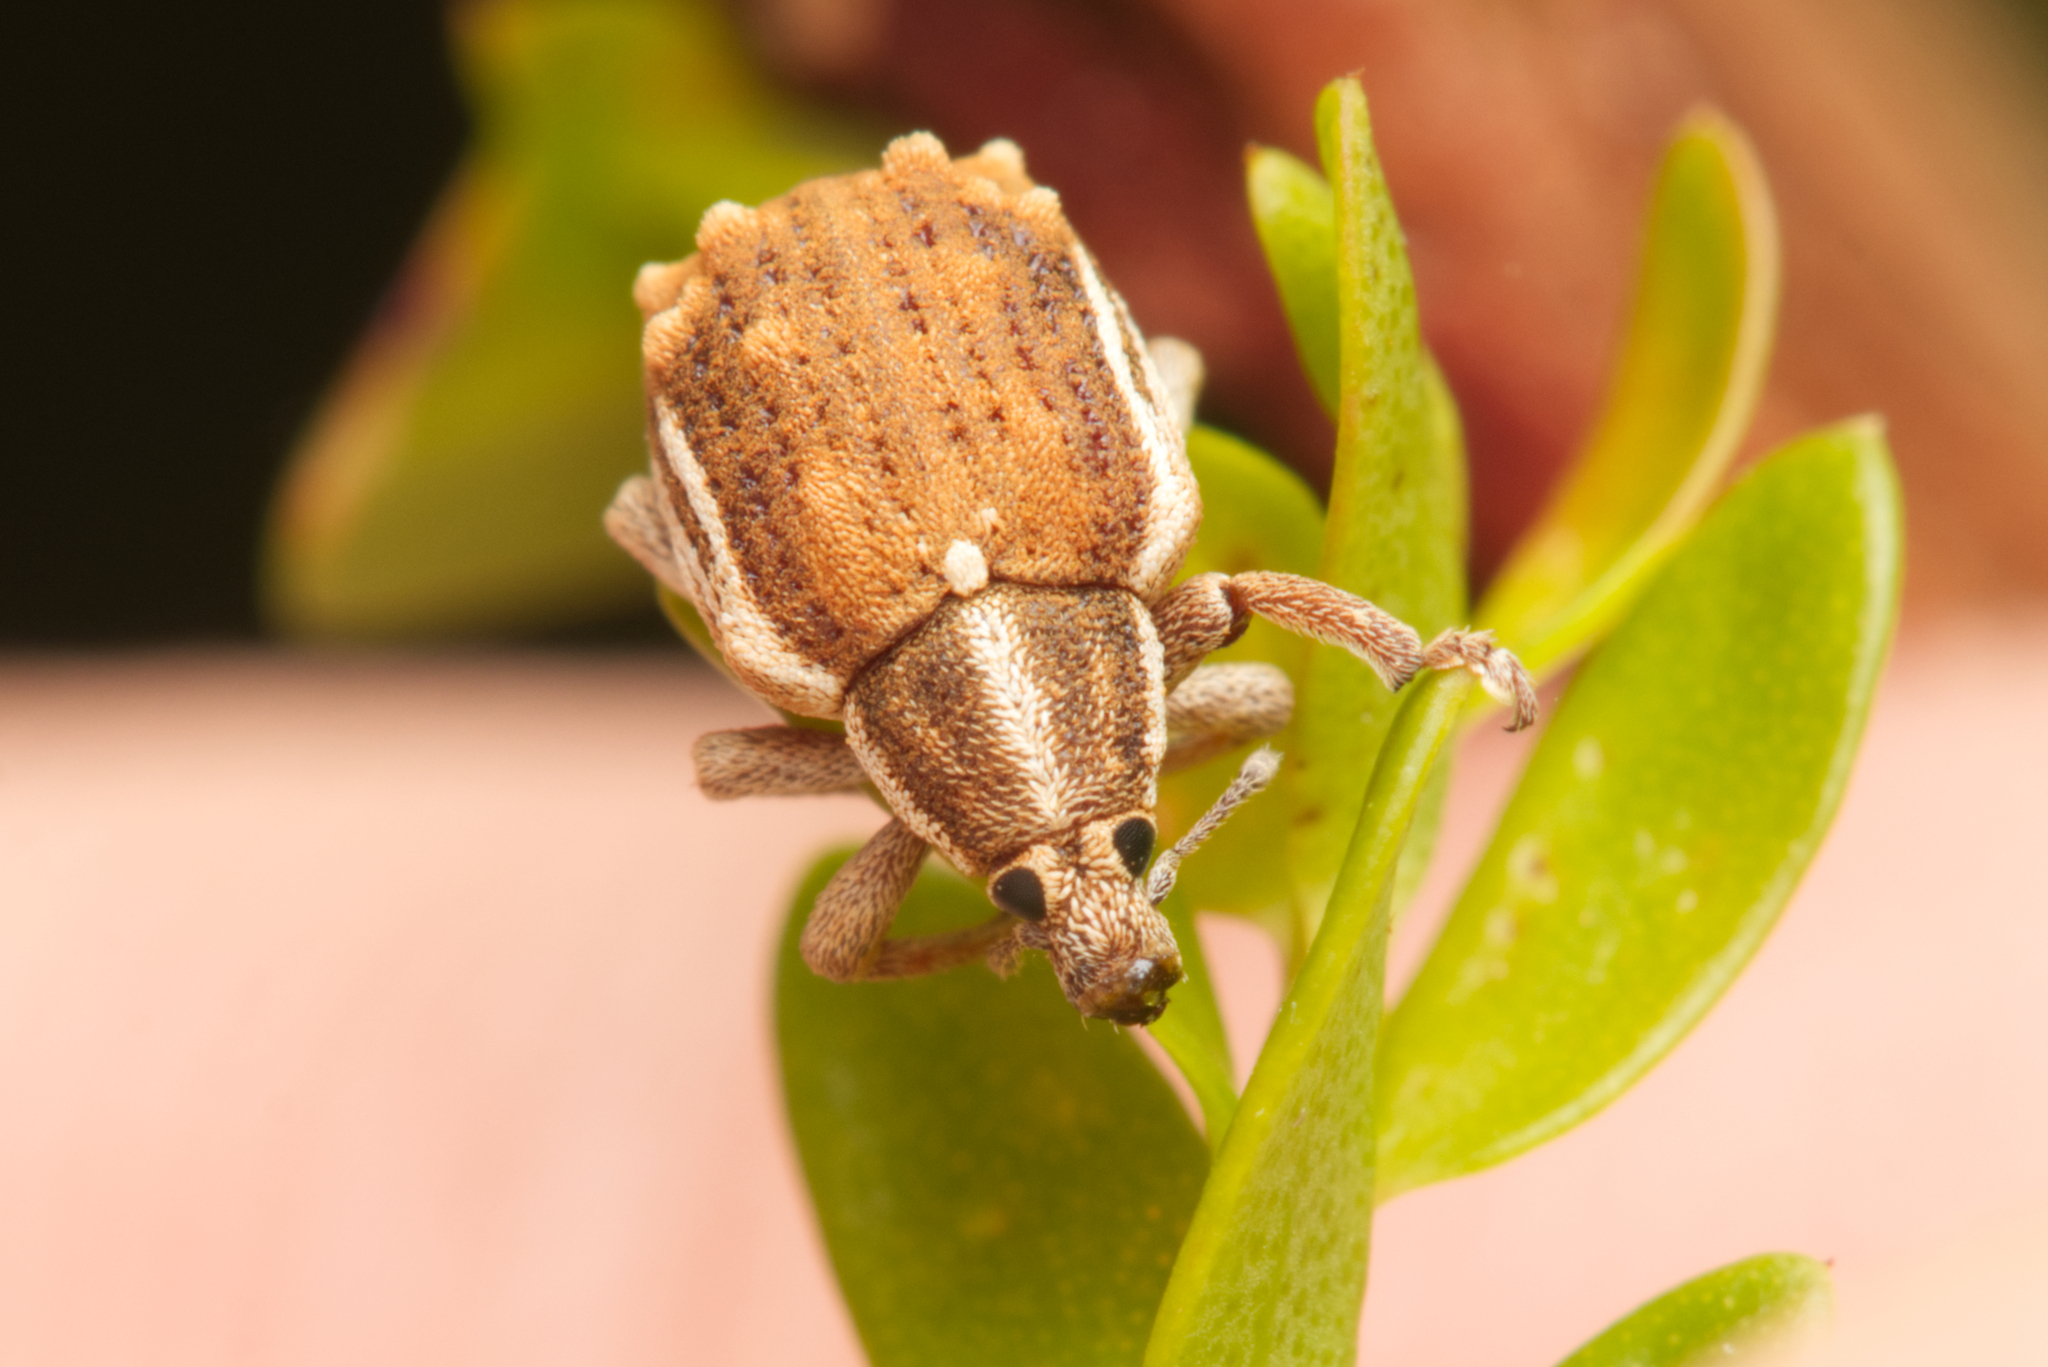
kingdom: Animalia
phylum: Arthropoda
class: Insecta
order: Coleoptera
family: Curculionidae
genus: Iptergonus
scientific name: Iptergonus bifurcatus
